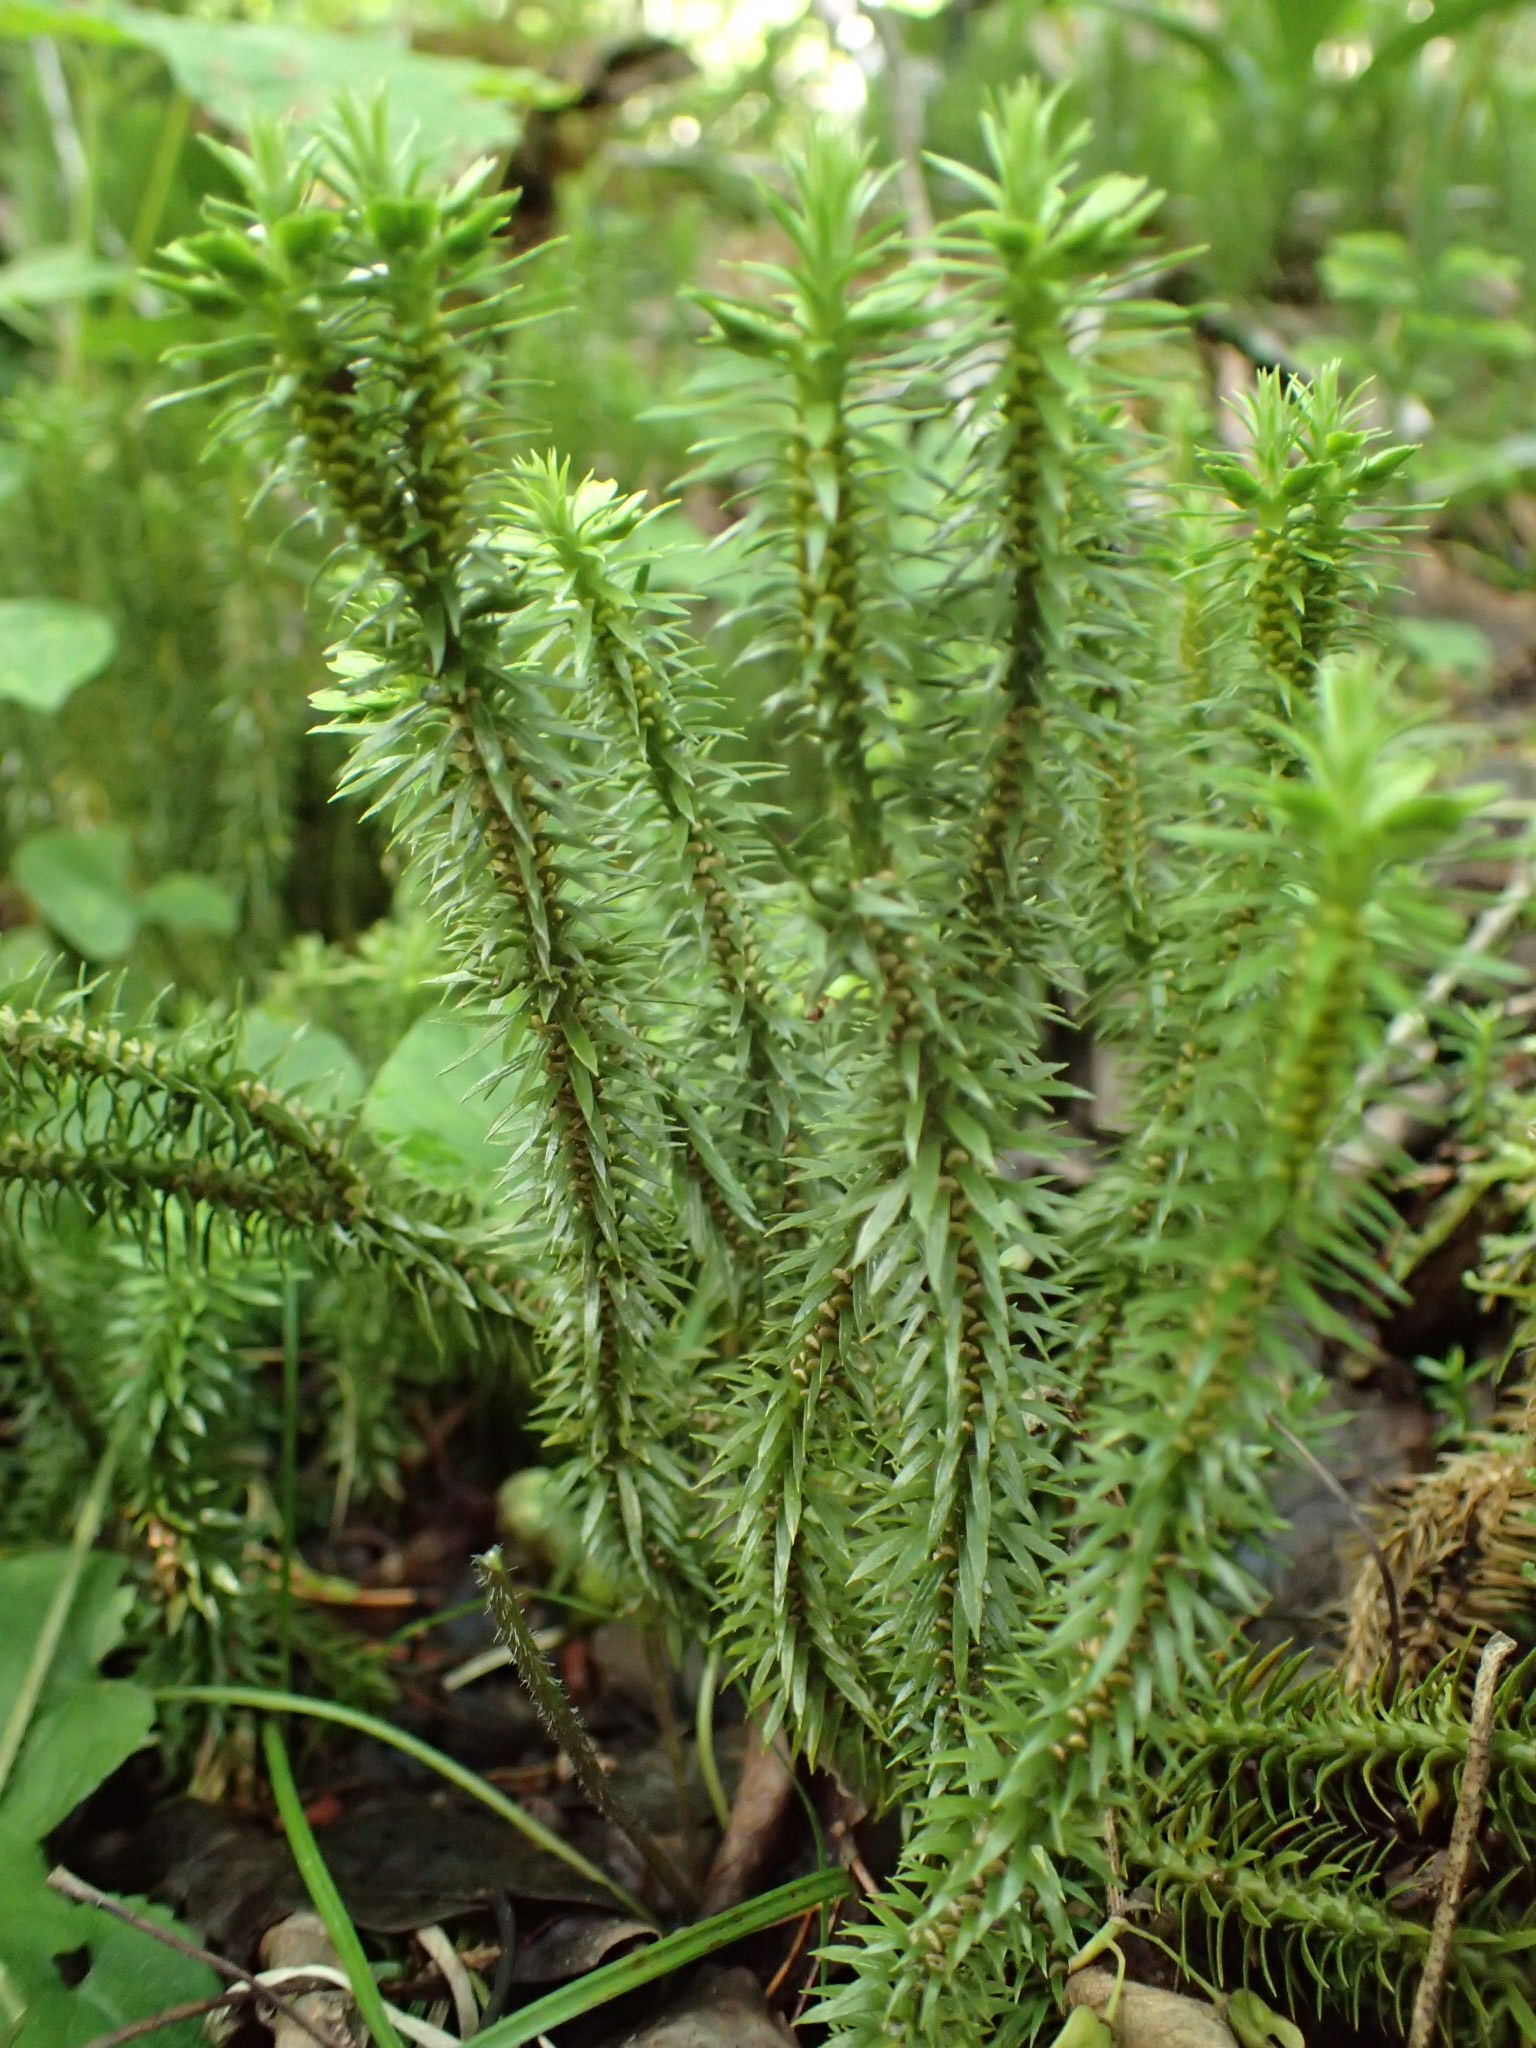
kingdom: Plantae
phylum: Tracheophyta
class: Lycopodiopsida
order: Lycopodiales
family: Lycopodiaceae
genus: Huperzia
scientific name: Huperzia lucidula
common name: Shining clubmoss
